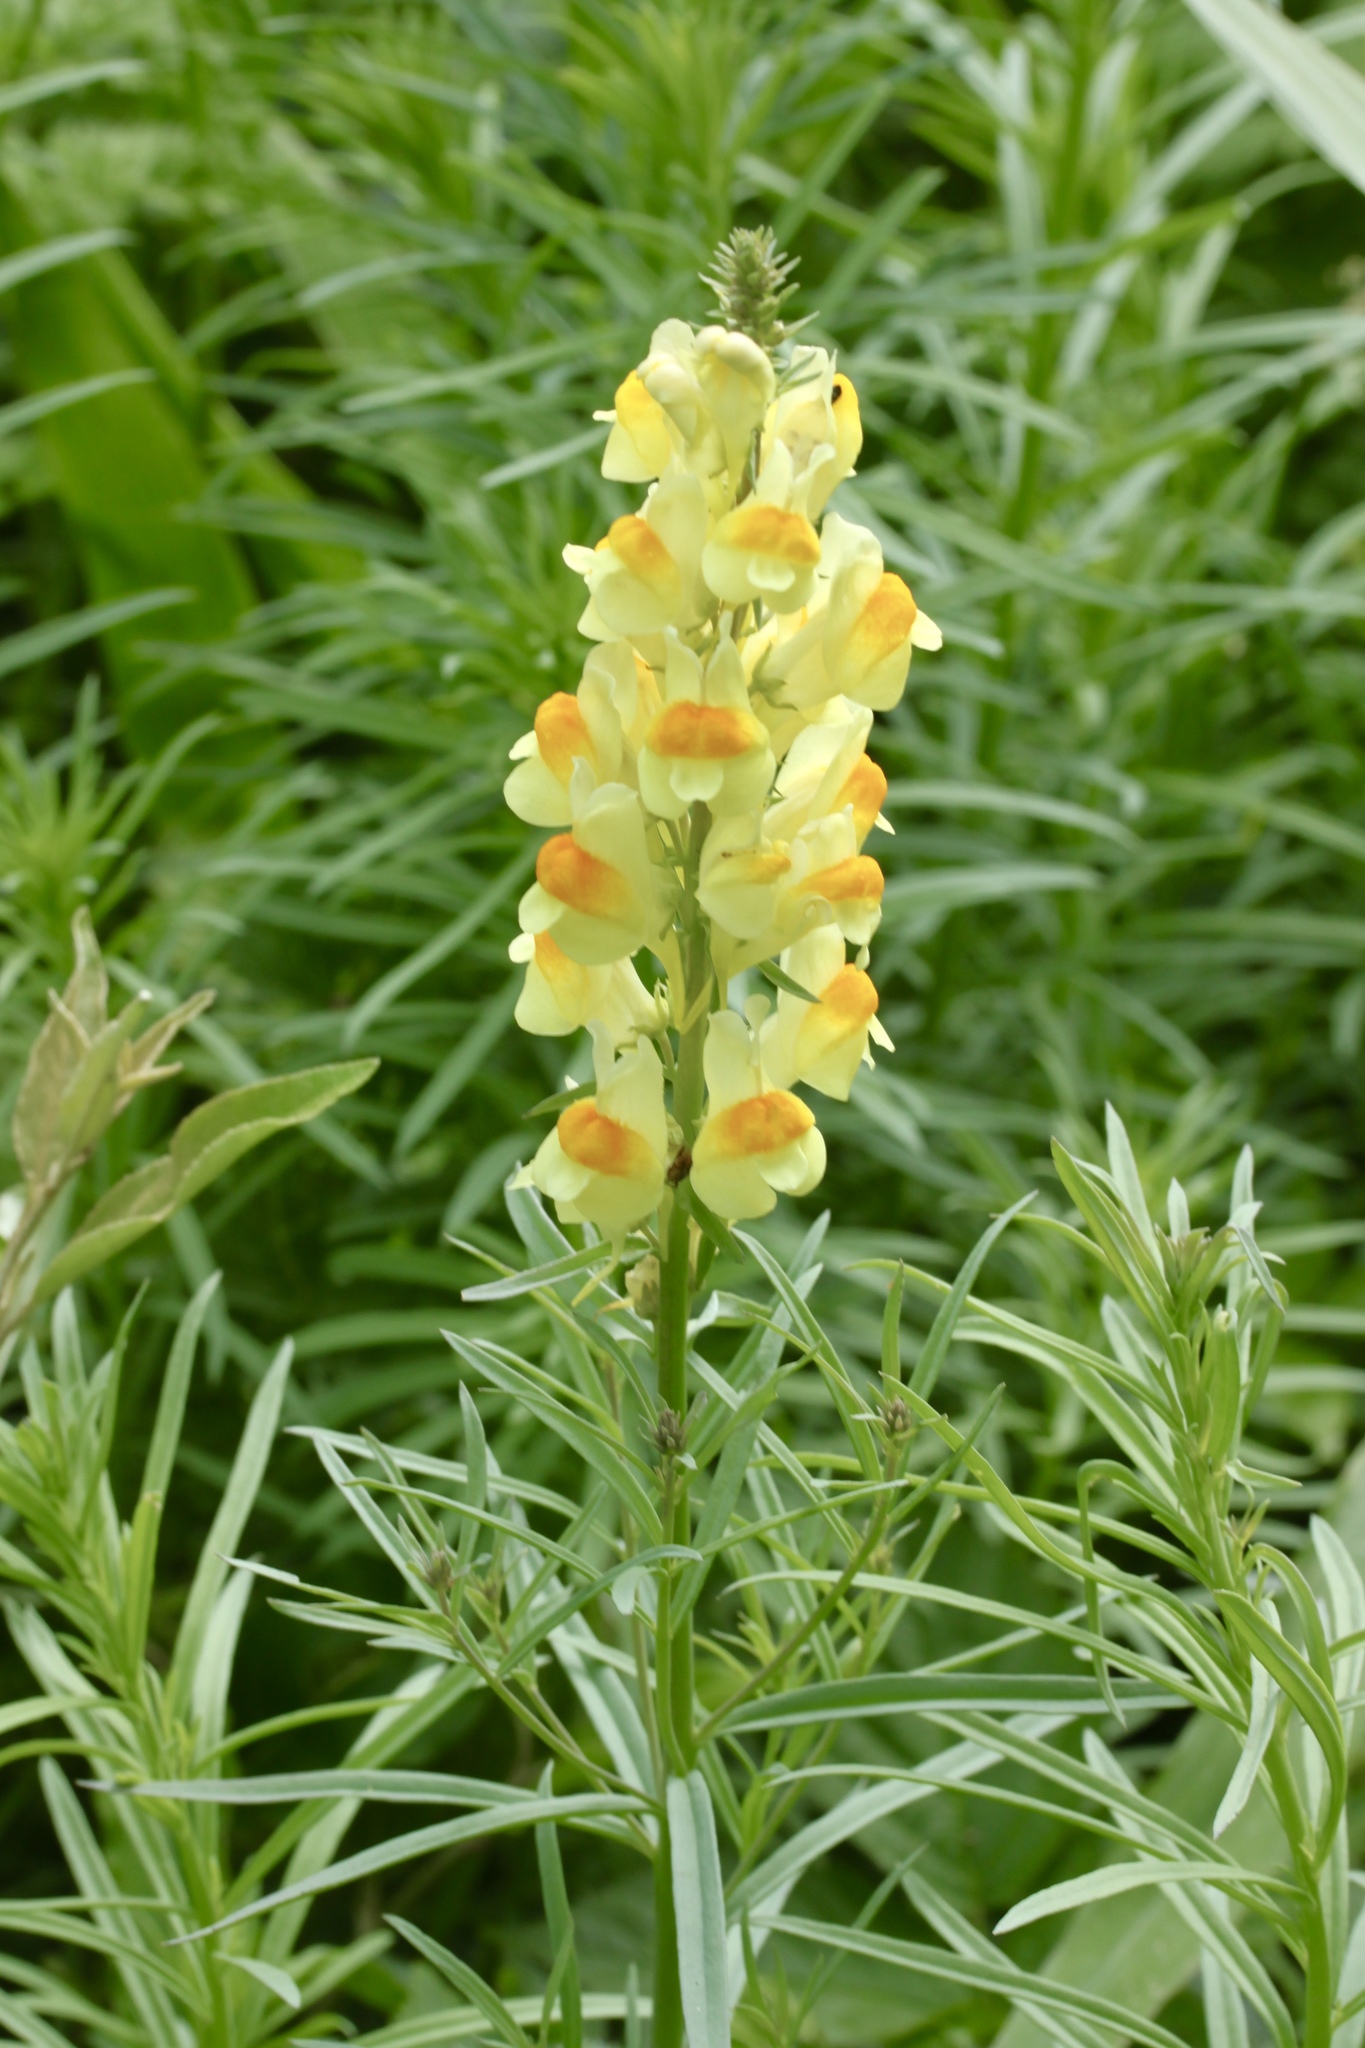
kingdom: Plantae
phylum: Tracheophyta
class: Magnoliopsida
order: Lamiales
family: Plantaginaceae
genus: Linaria
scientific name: Linaria vulgaris
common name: Butter and eggs
